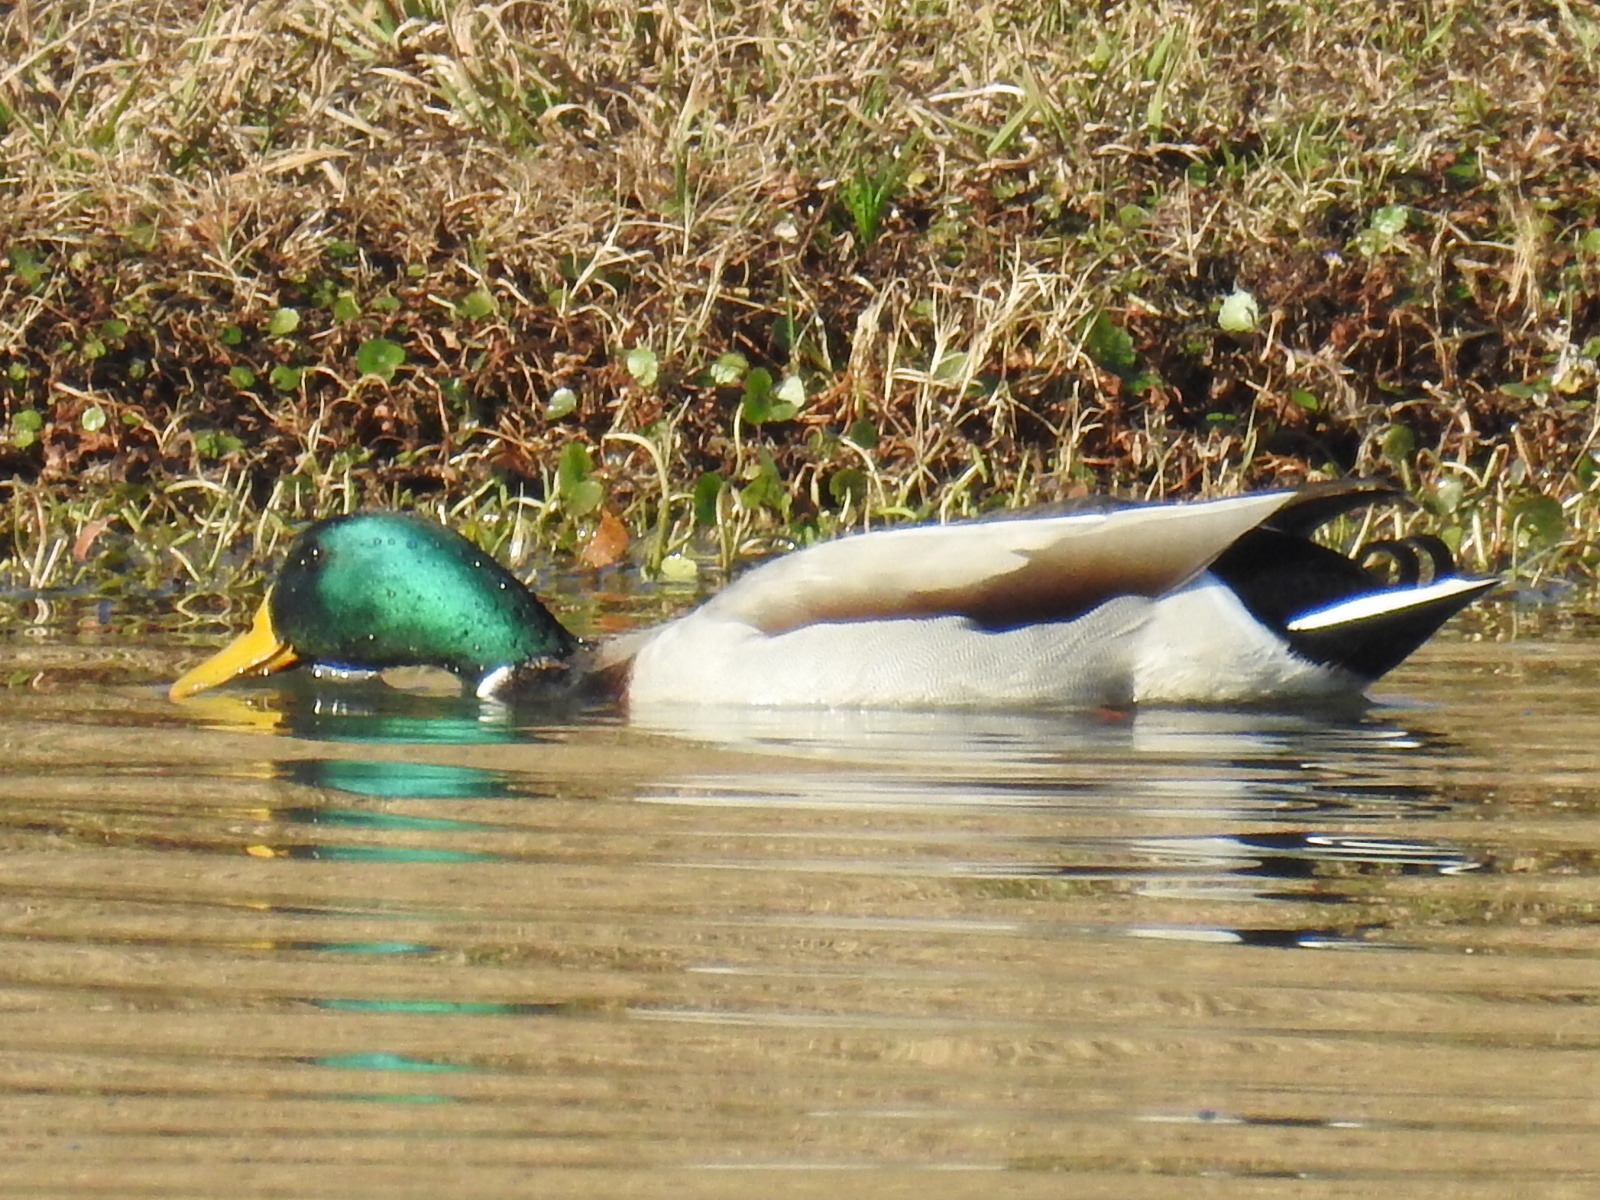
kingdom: Animalia
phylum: Chordata
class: Aves
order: Anseriformes
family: Anatidae
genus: Anas
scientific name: Anas platyrhynchos
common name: Mallard
